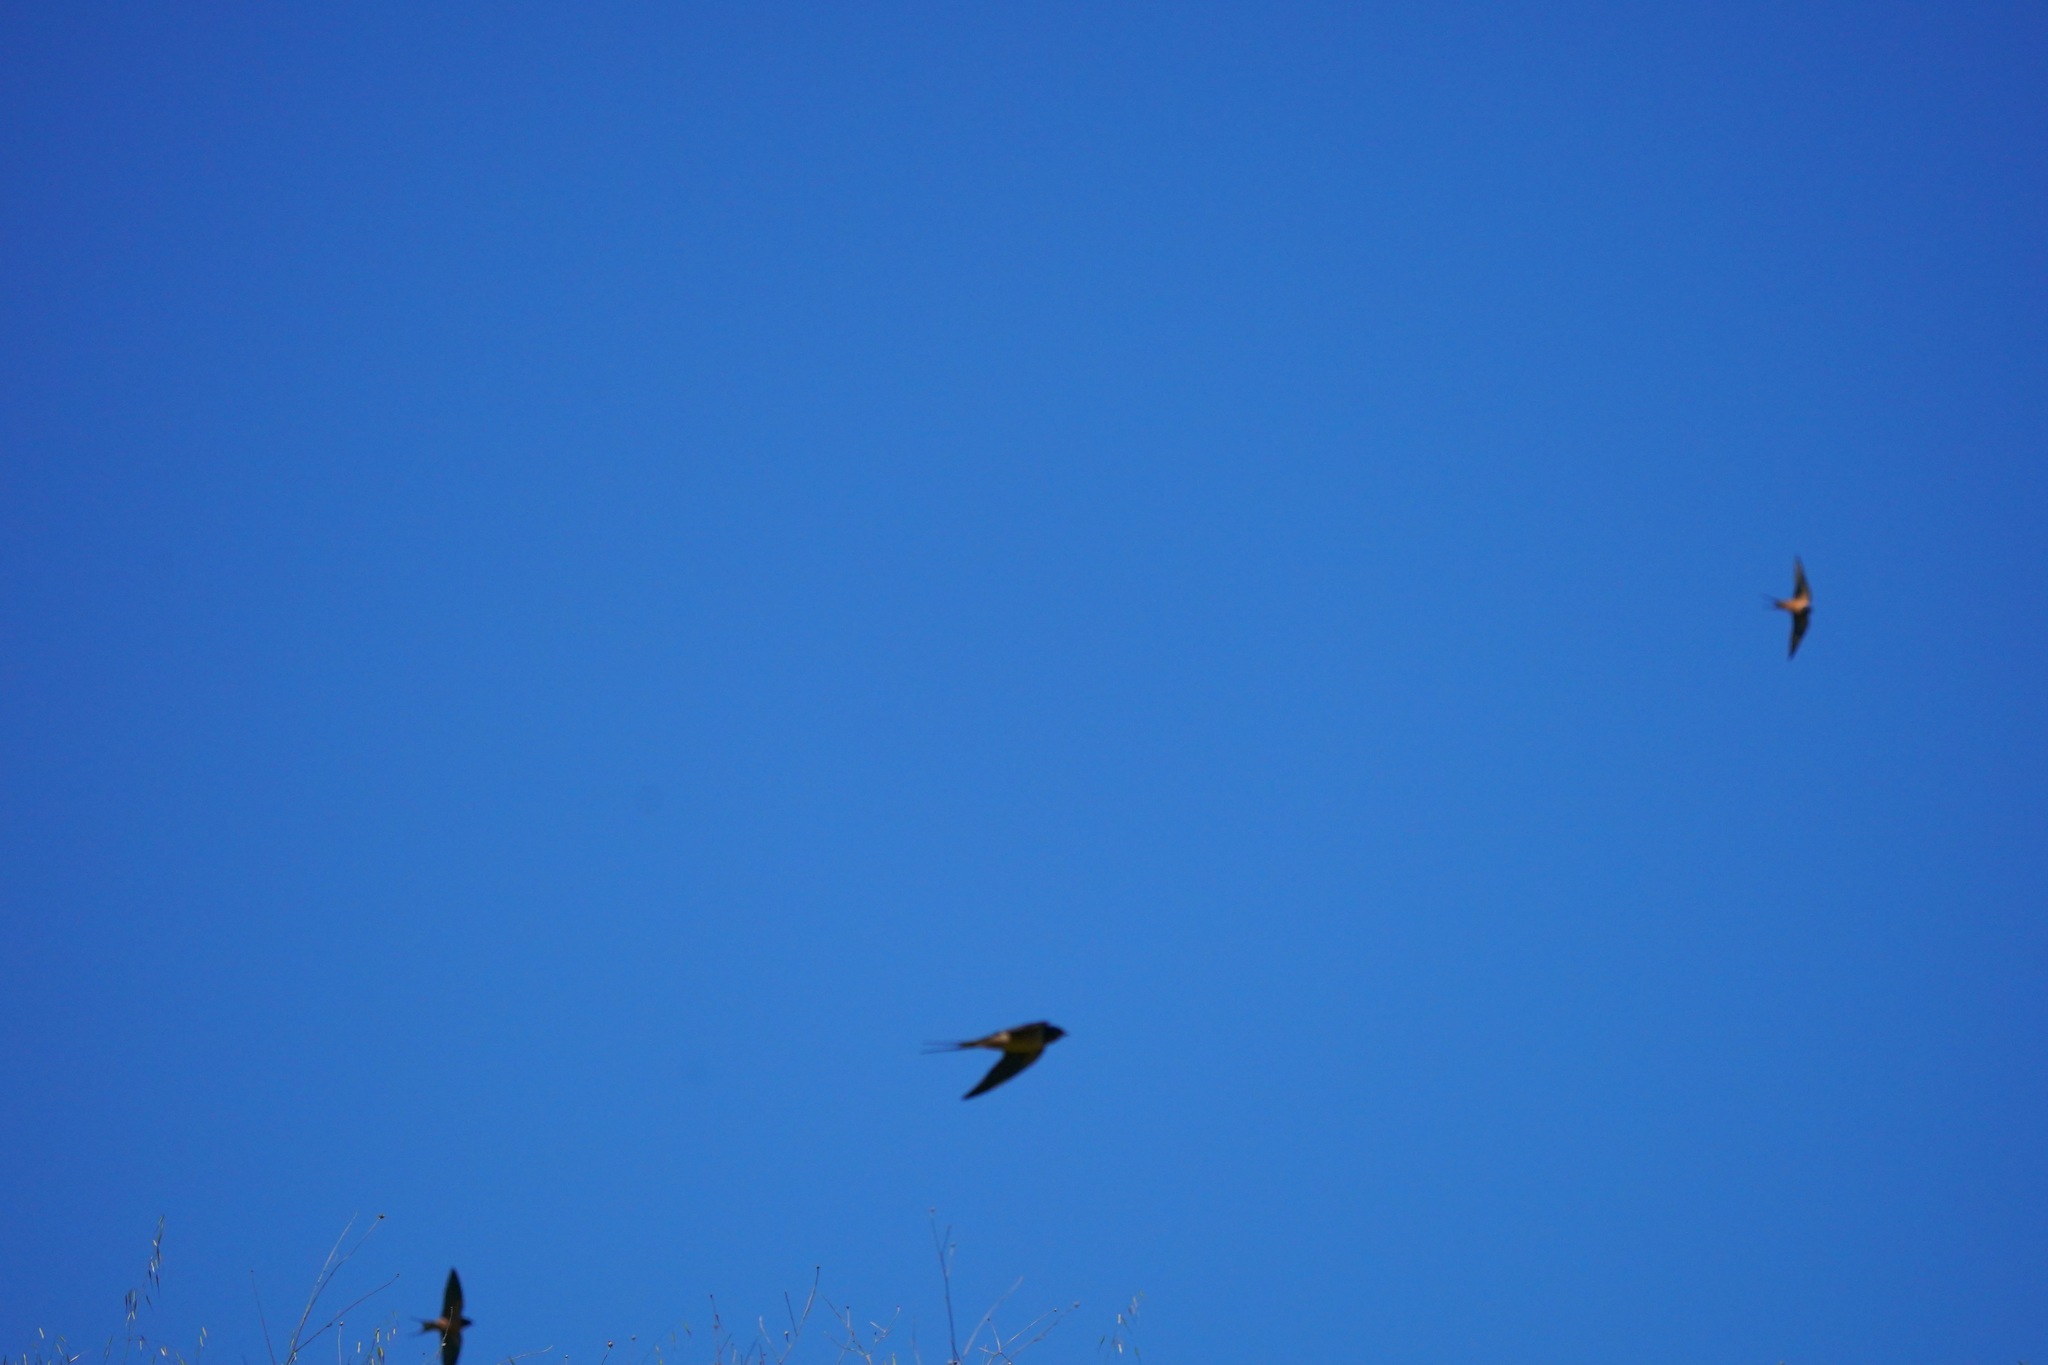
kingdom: Animalia
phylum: Chordata
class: Aves
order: Passeriformes
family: Hirundinidae
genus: Hirundo
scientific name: Hirundo rustica
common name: Barn swallow
